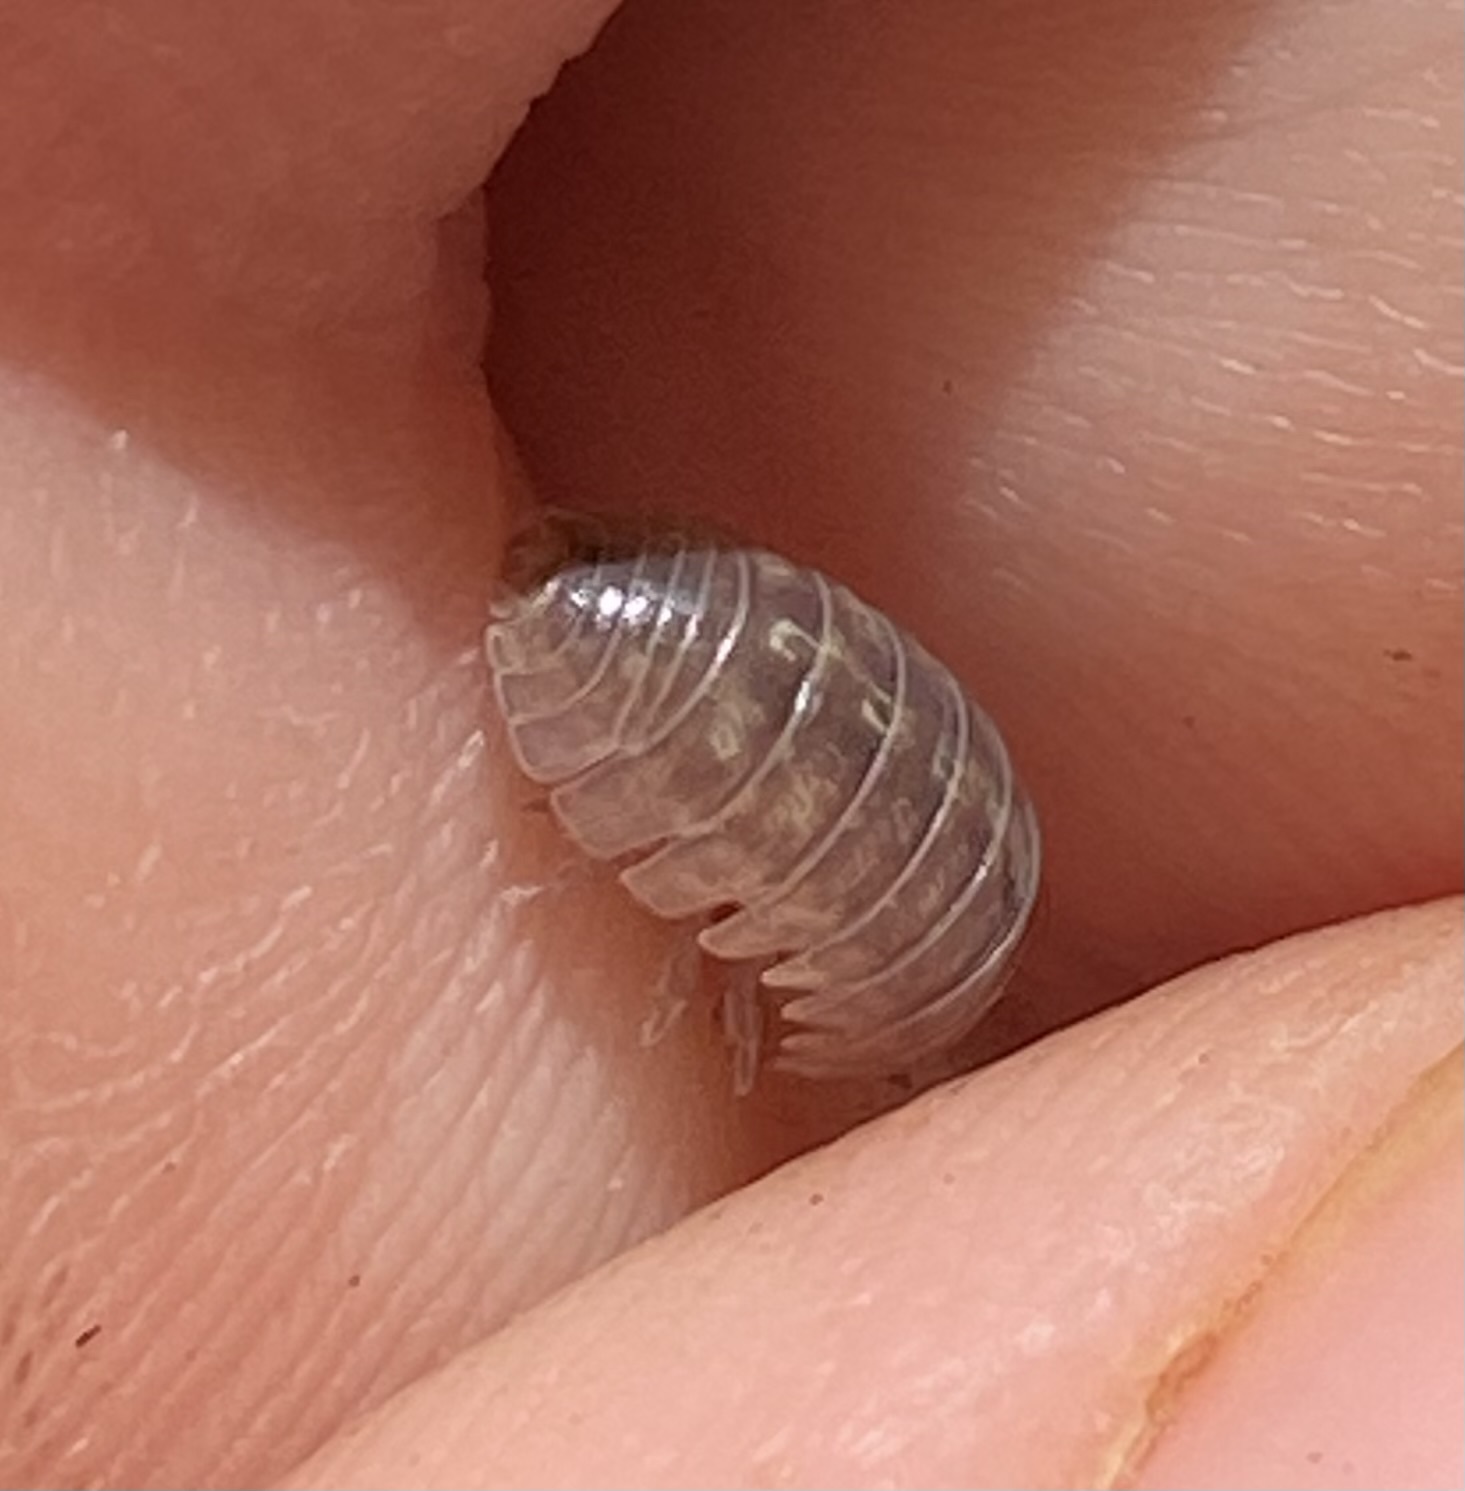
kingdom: Animalia
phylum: Arthropoda
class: Malacostraca
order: Isopoda
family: Armadillidiidae
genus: Armadillidium
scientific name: Armadillidium vulgare
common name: Common pill woodlouse
